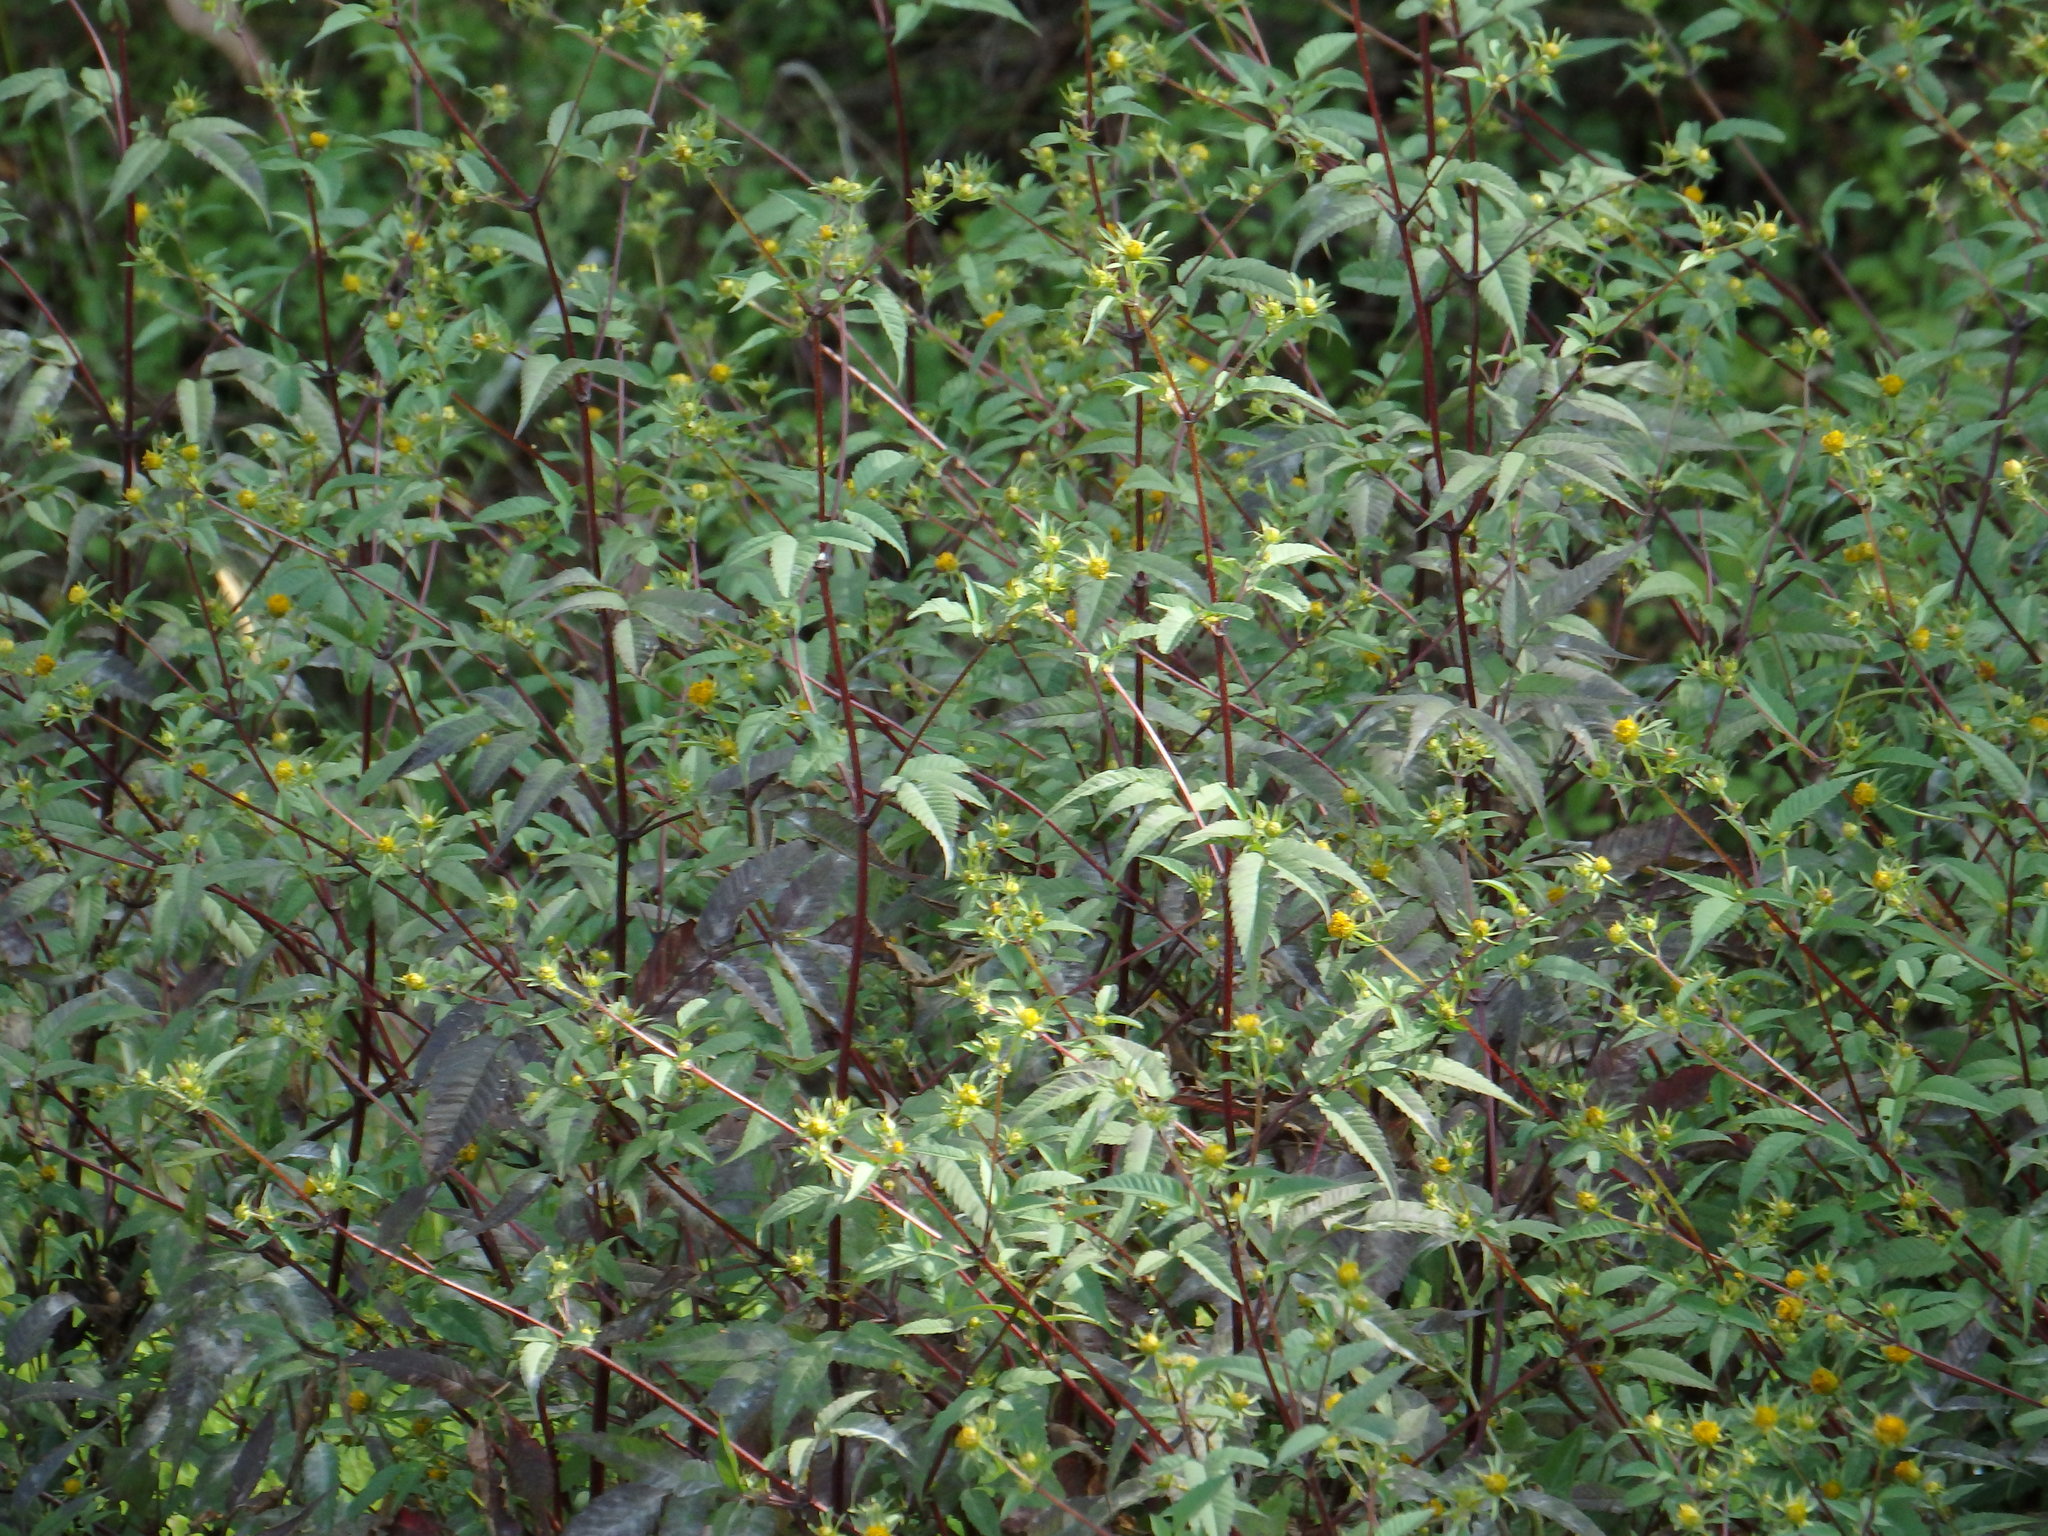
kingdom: Plantae
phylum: Tracheophyta
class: Magnoliopsida
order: Asterales
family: Asteraceae
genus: Bidens
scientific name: Bidens frondosa
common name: Beggarticks
